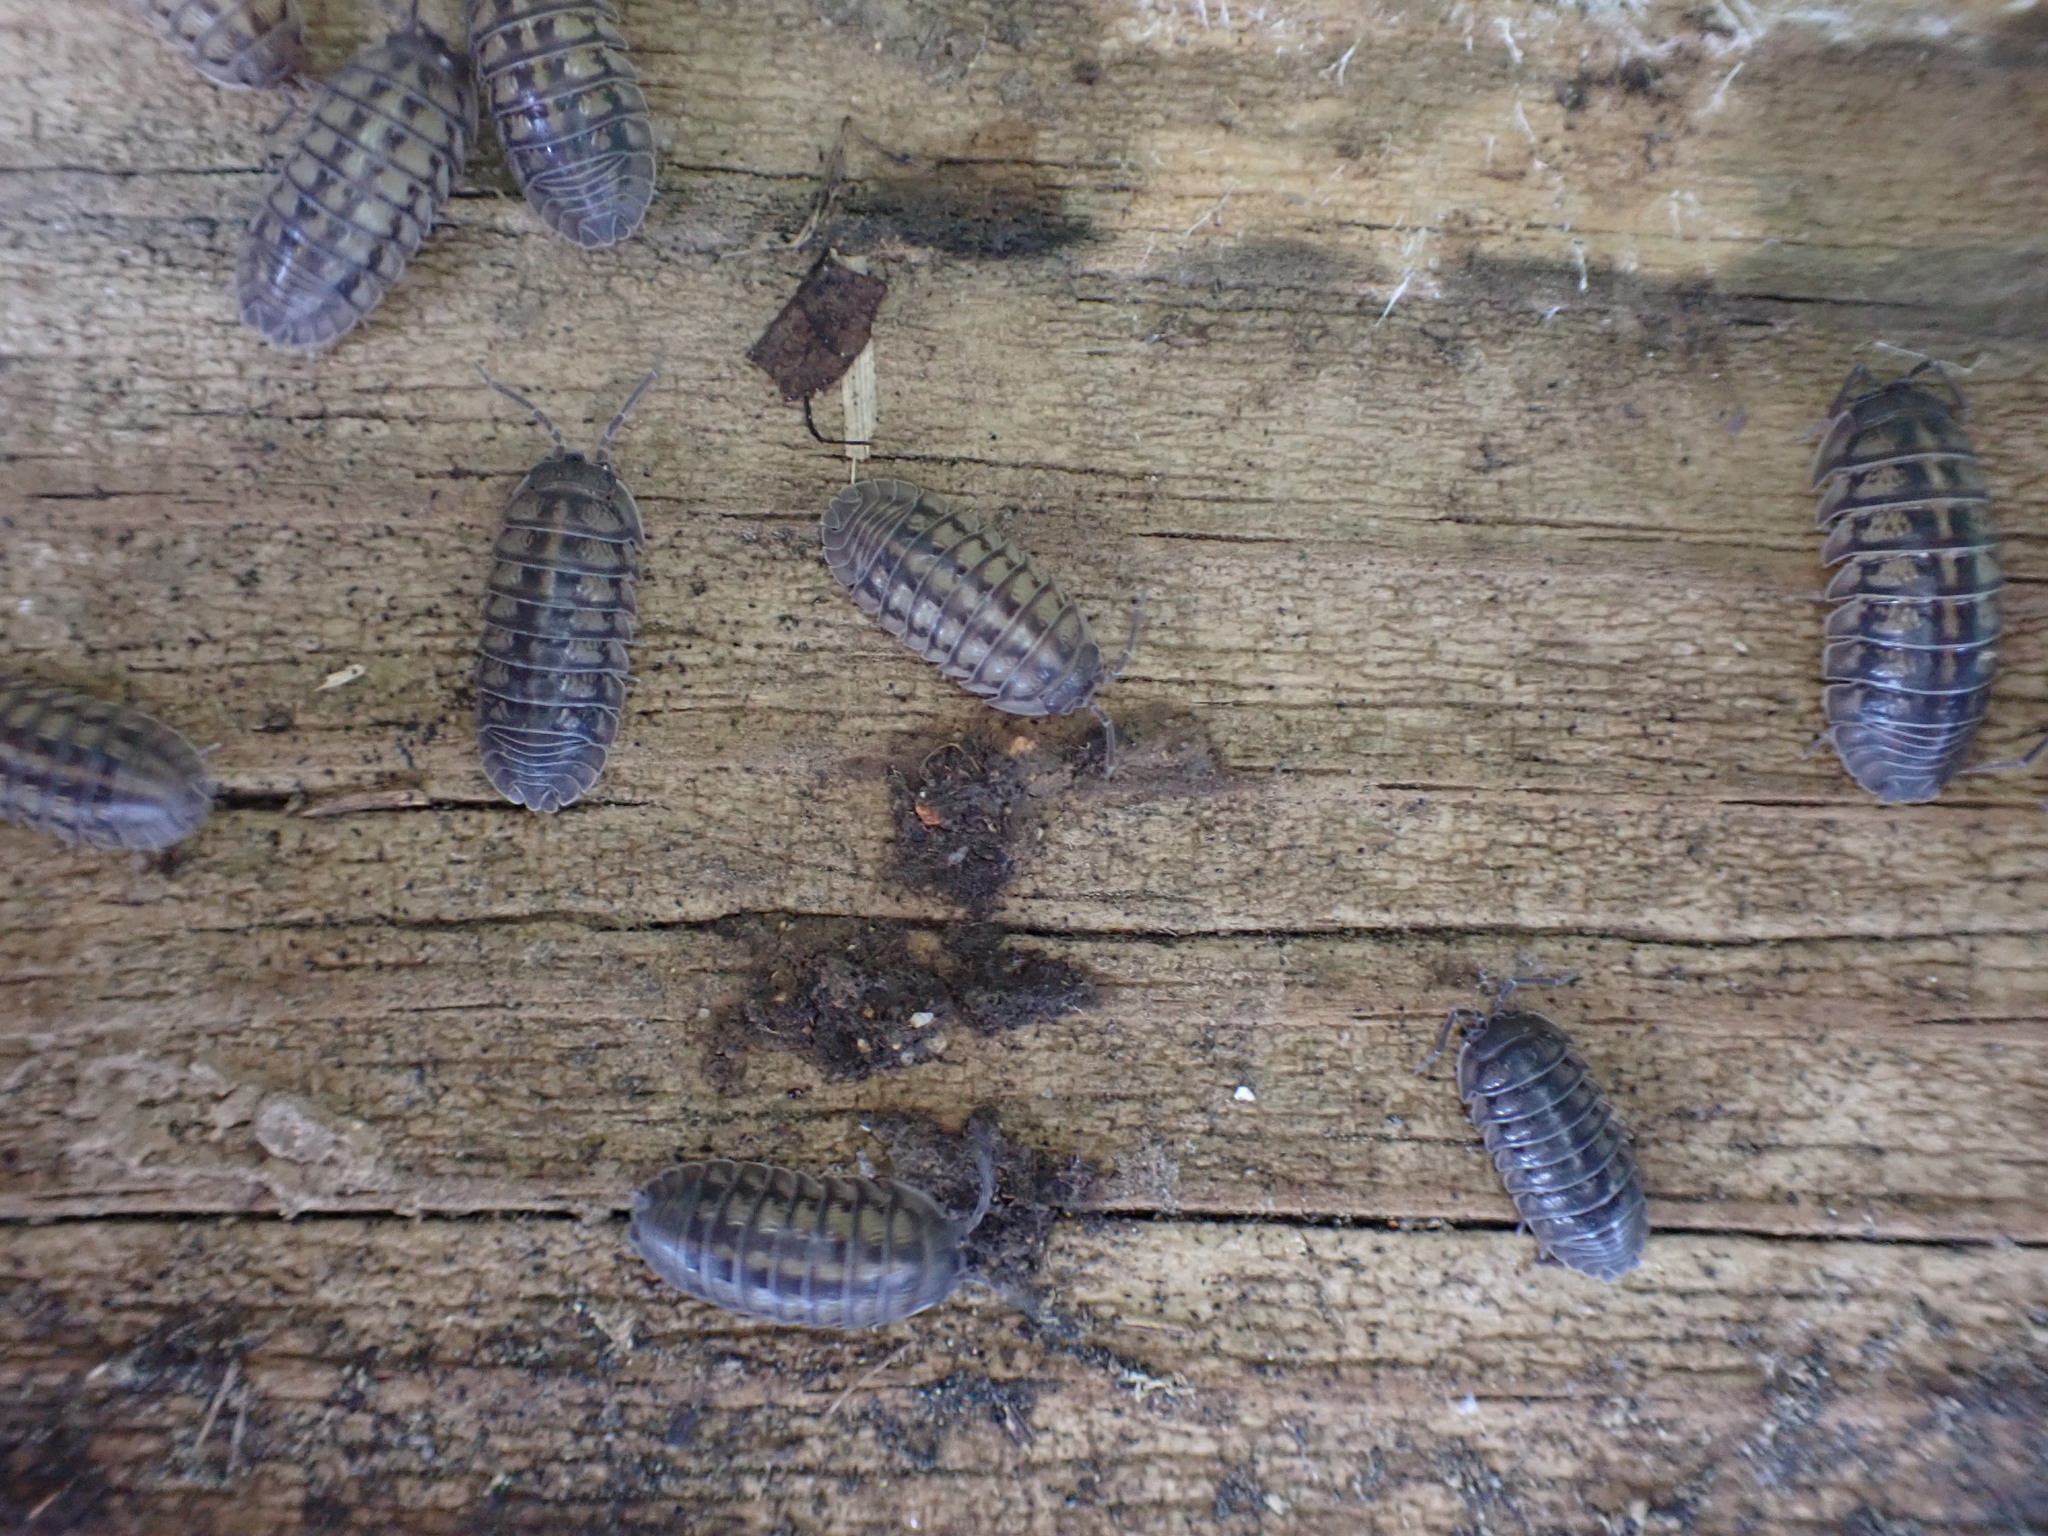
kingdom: Animalia
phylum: Arthropoda
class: Malacostraca
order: Isopoda
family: Armadillidiidae
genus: Armadillidium
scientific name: Armadillidium nasatum
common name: Isopod
